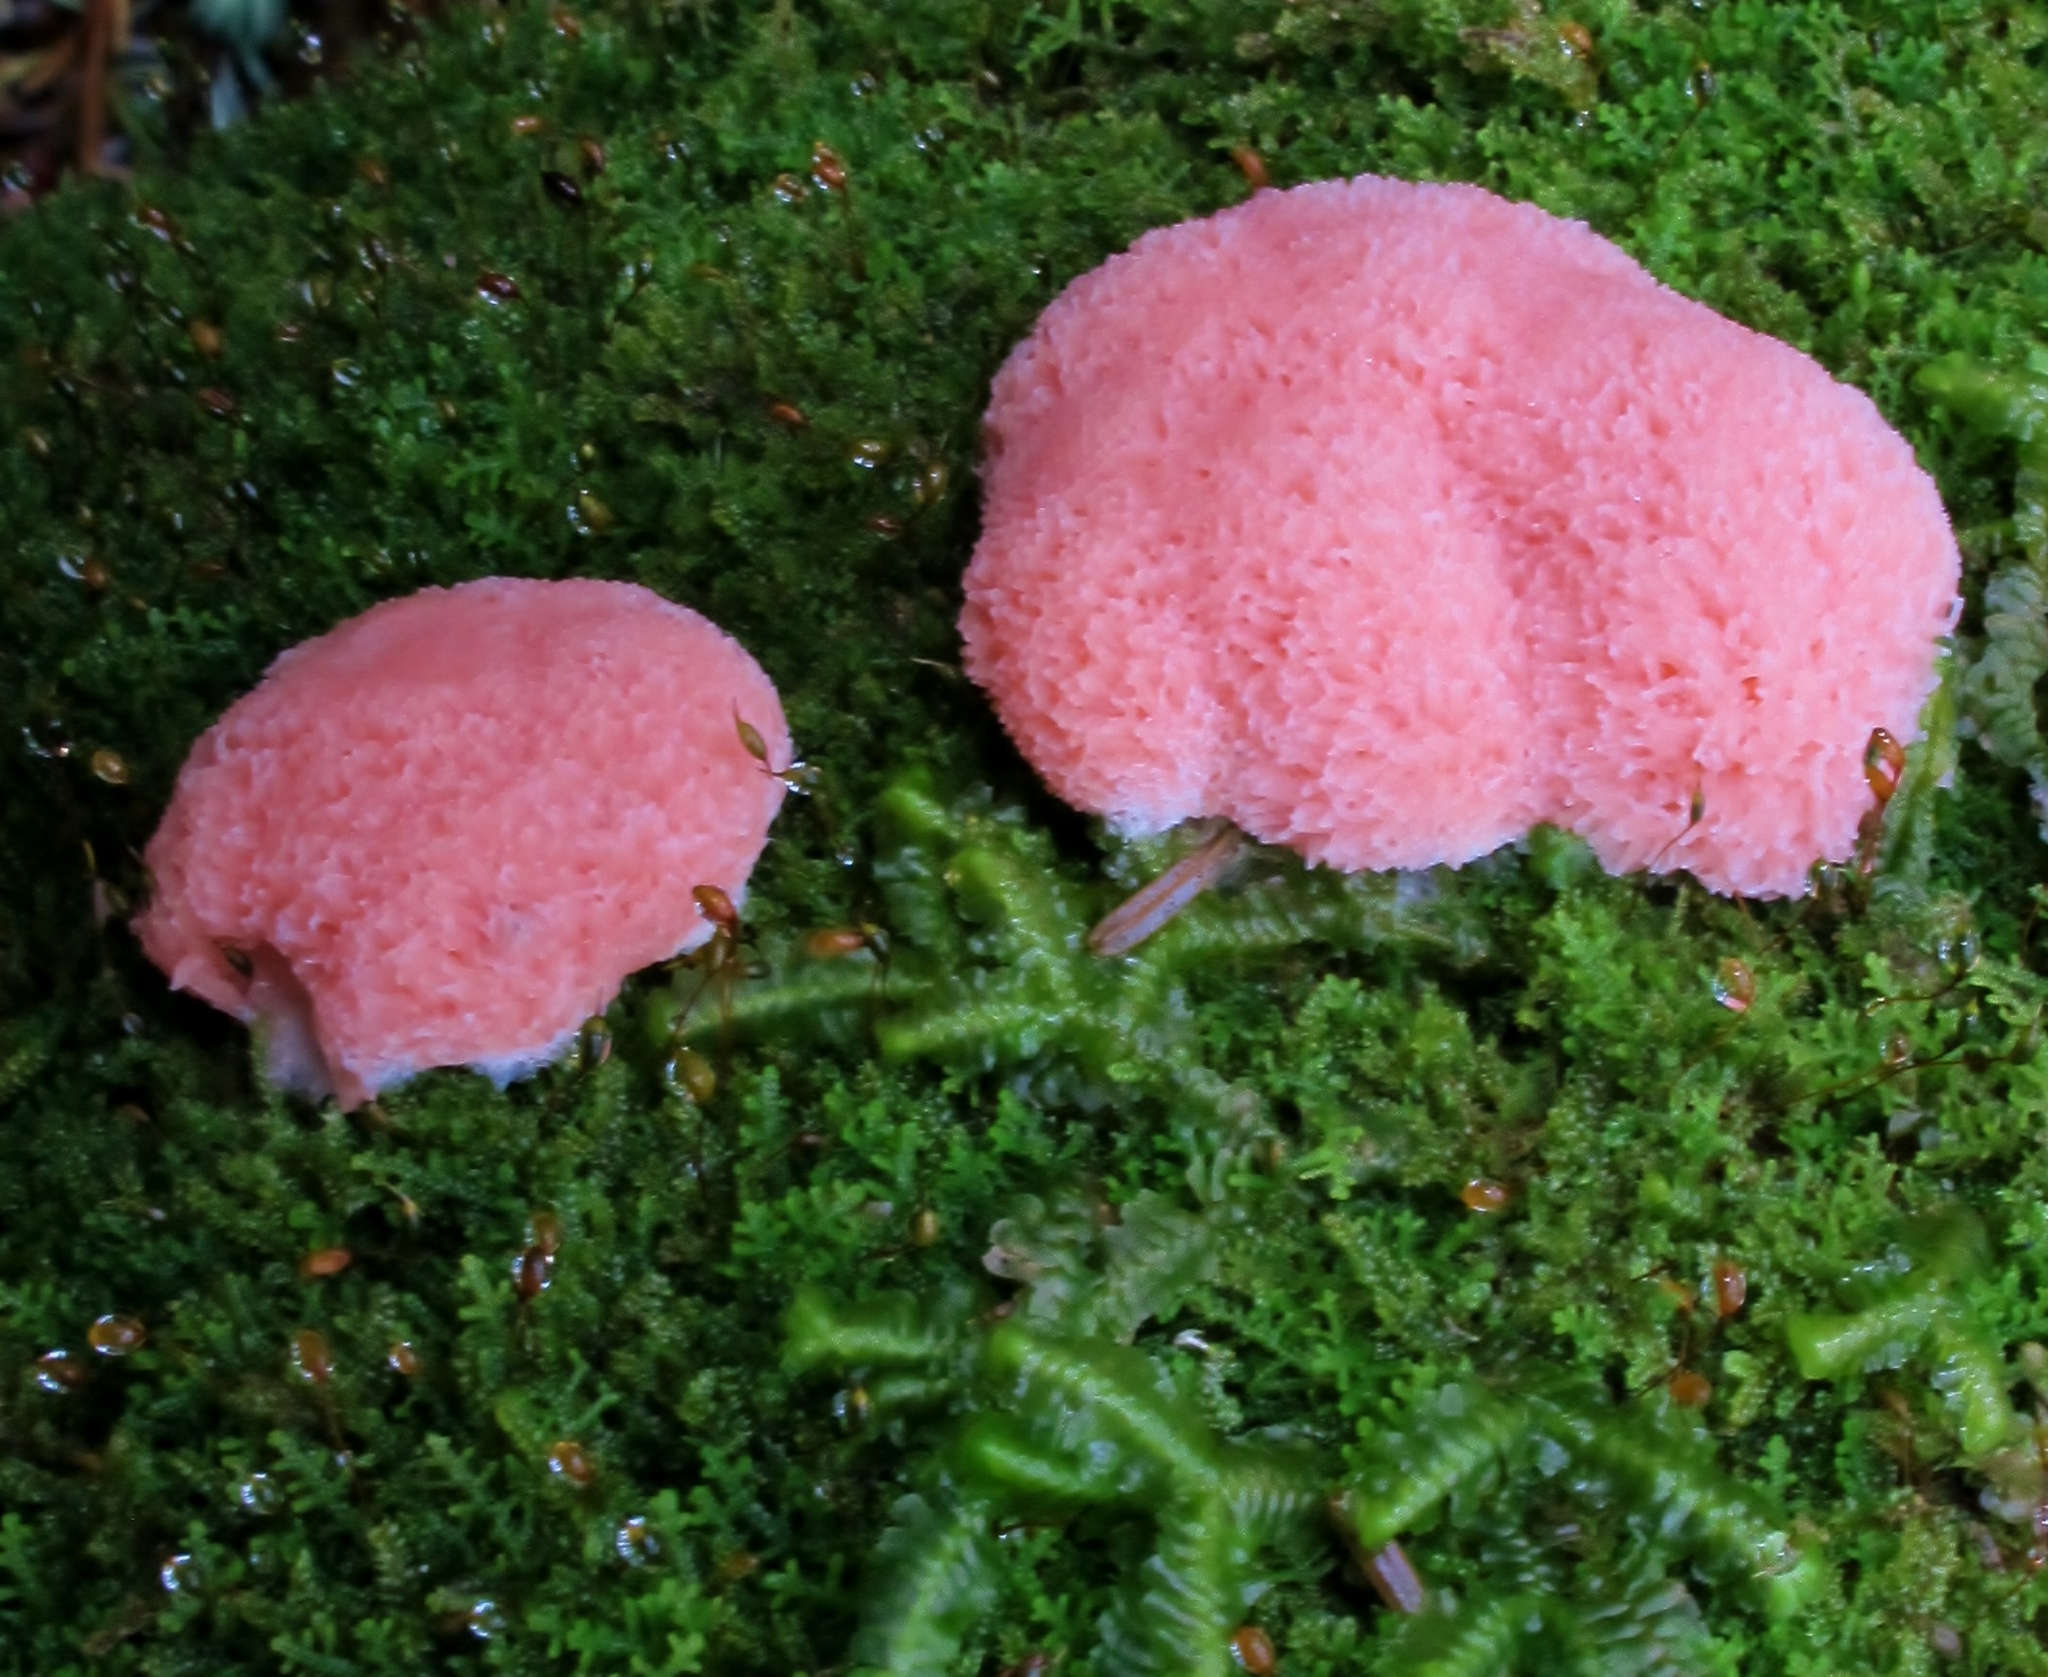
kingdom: Protozoa
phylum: Mycetozoa
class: Myxomycetes
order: Cribrariales
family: Tubiferaceae
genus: Tubifera
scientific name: Tubifera ferruginosa
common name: Red raspberry slime mold
